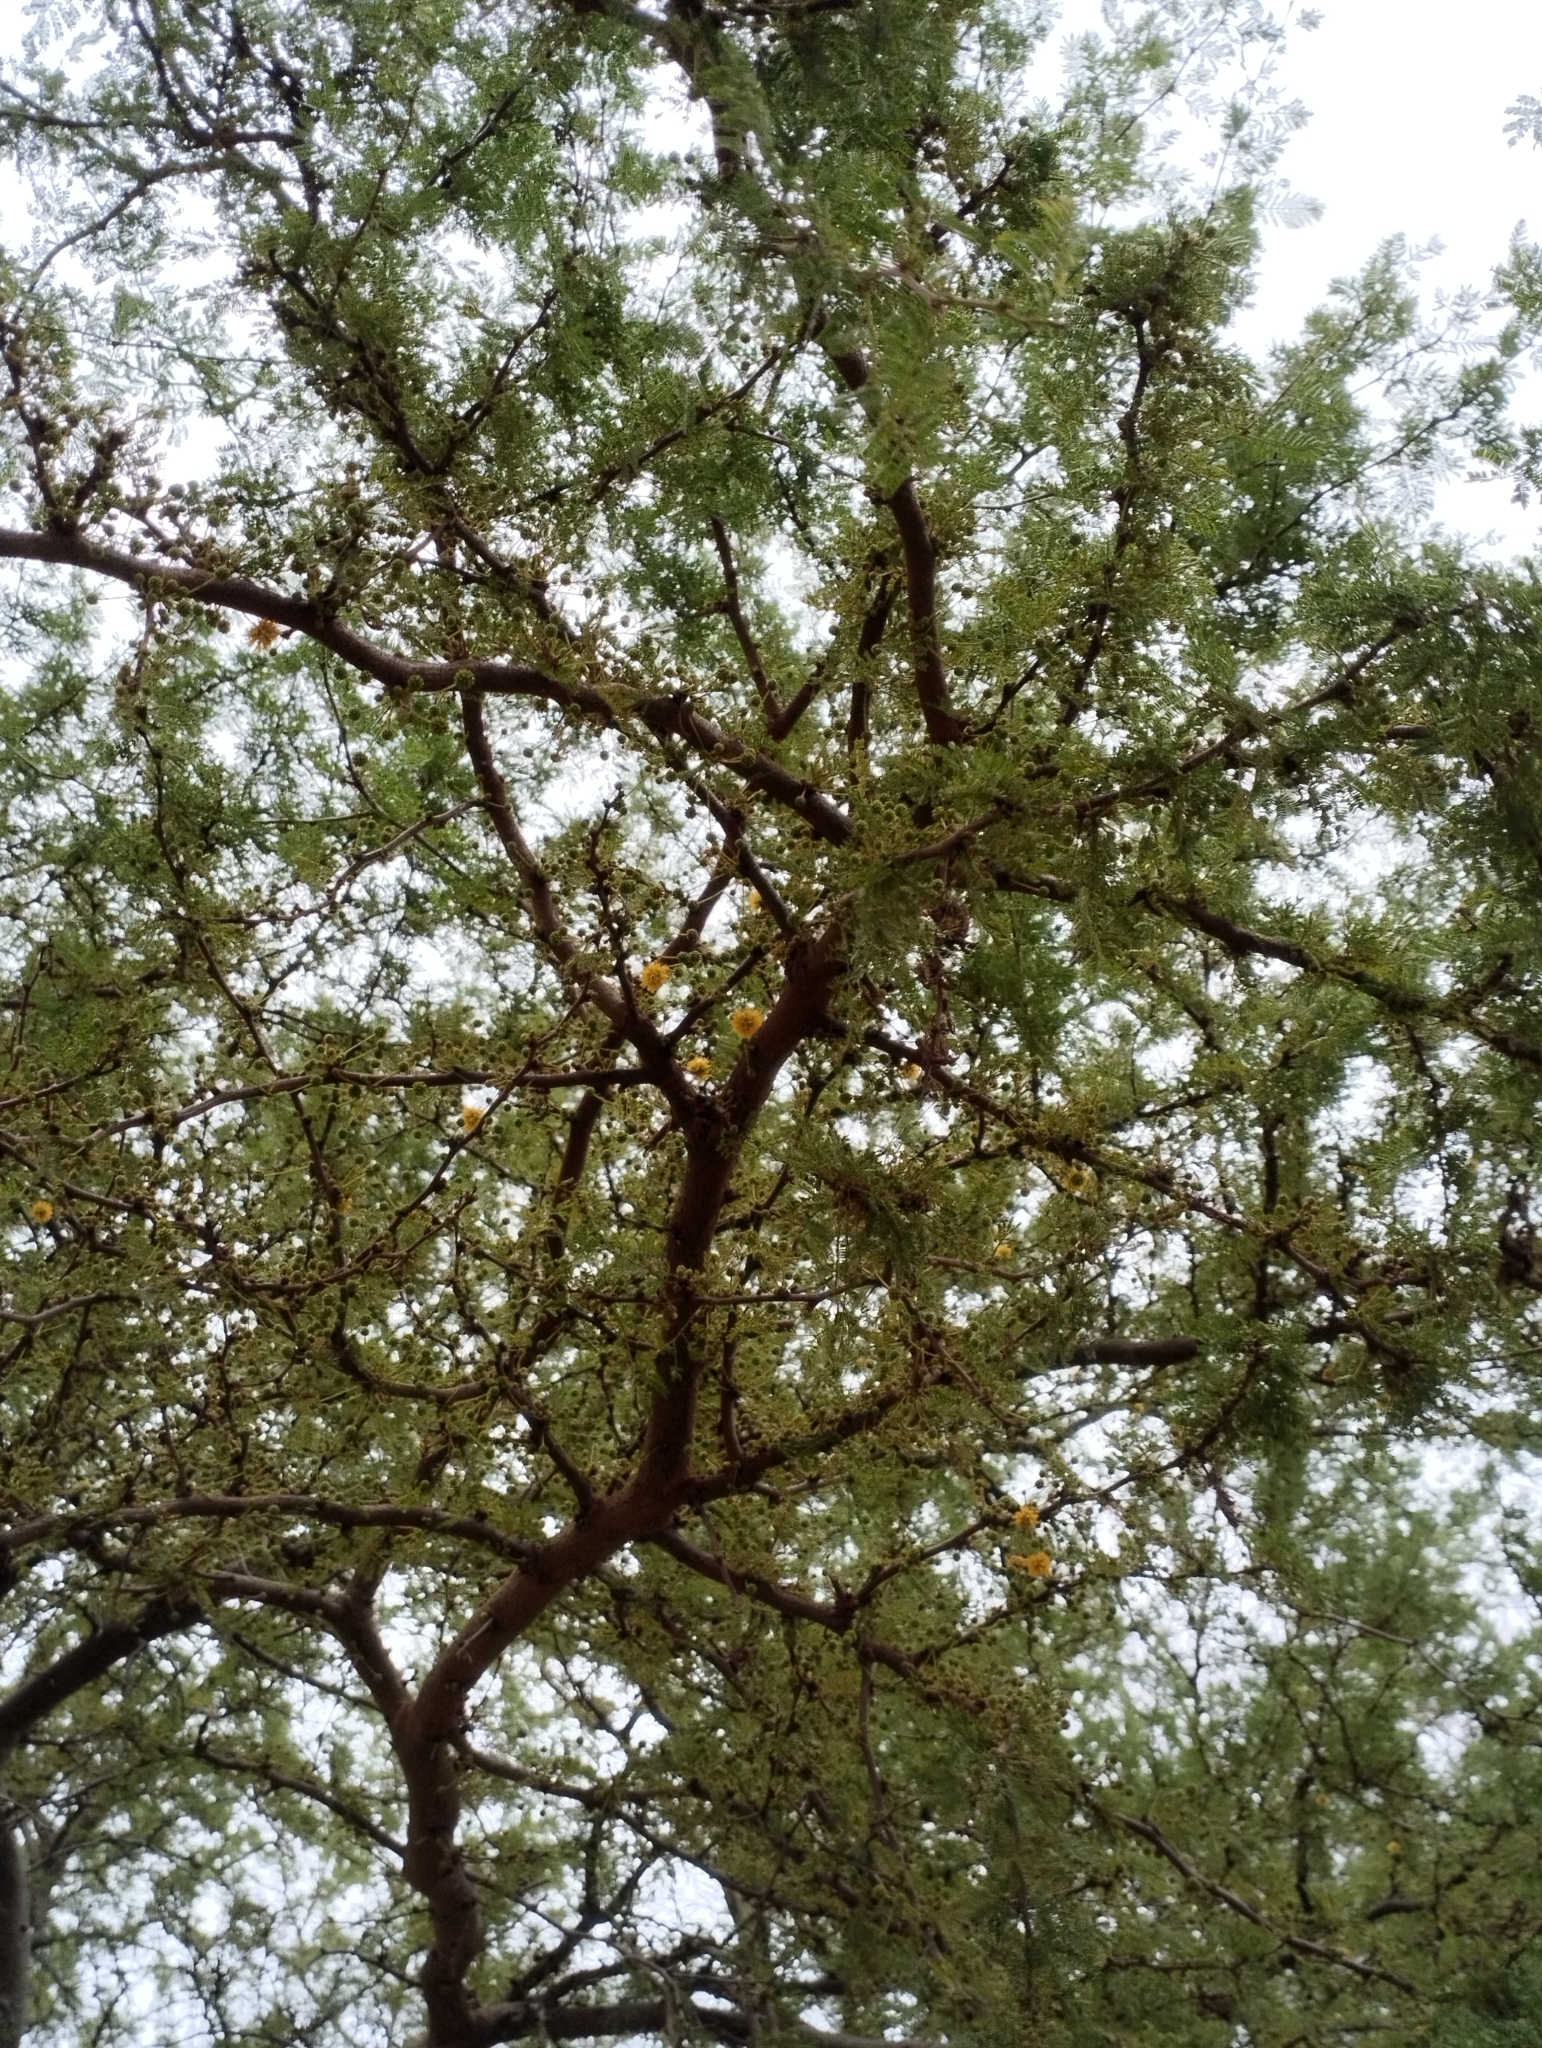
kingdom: Plantae
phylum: Tracheophyta
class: Magnoliopsida
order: Fabales
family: Fabaceae
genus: Vachellia
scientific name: Vachellia caven
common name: Roman cassie
